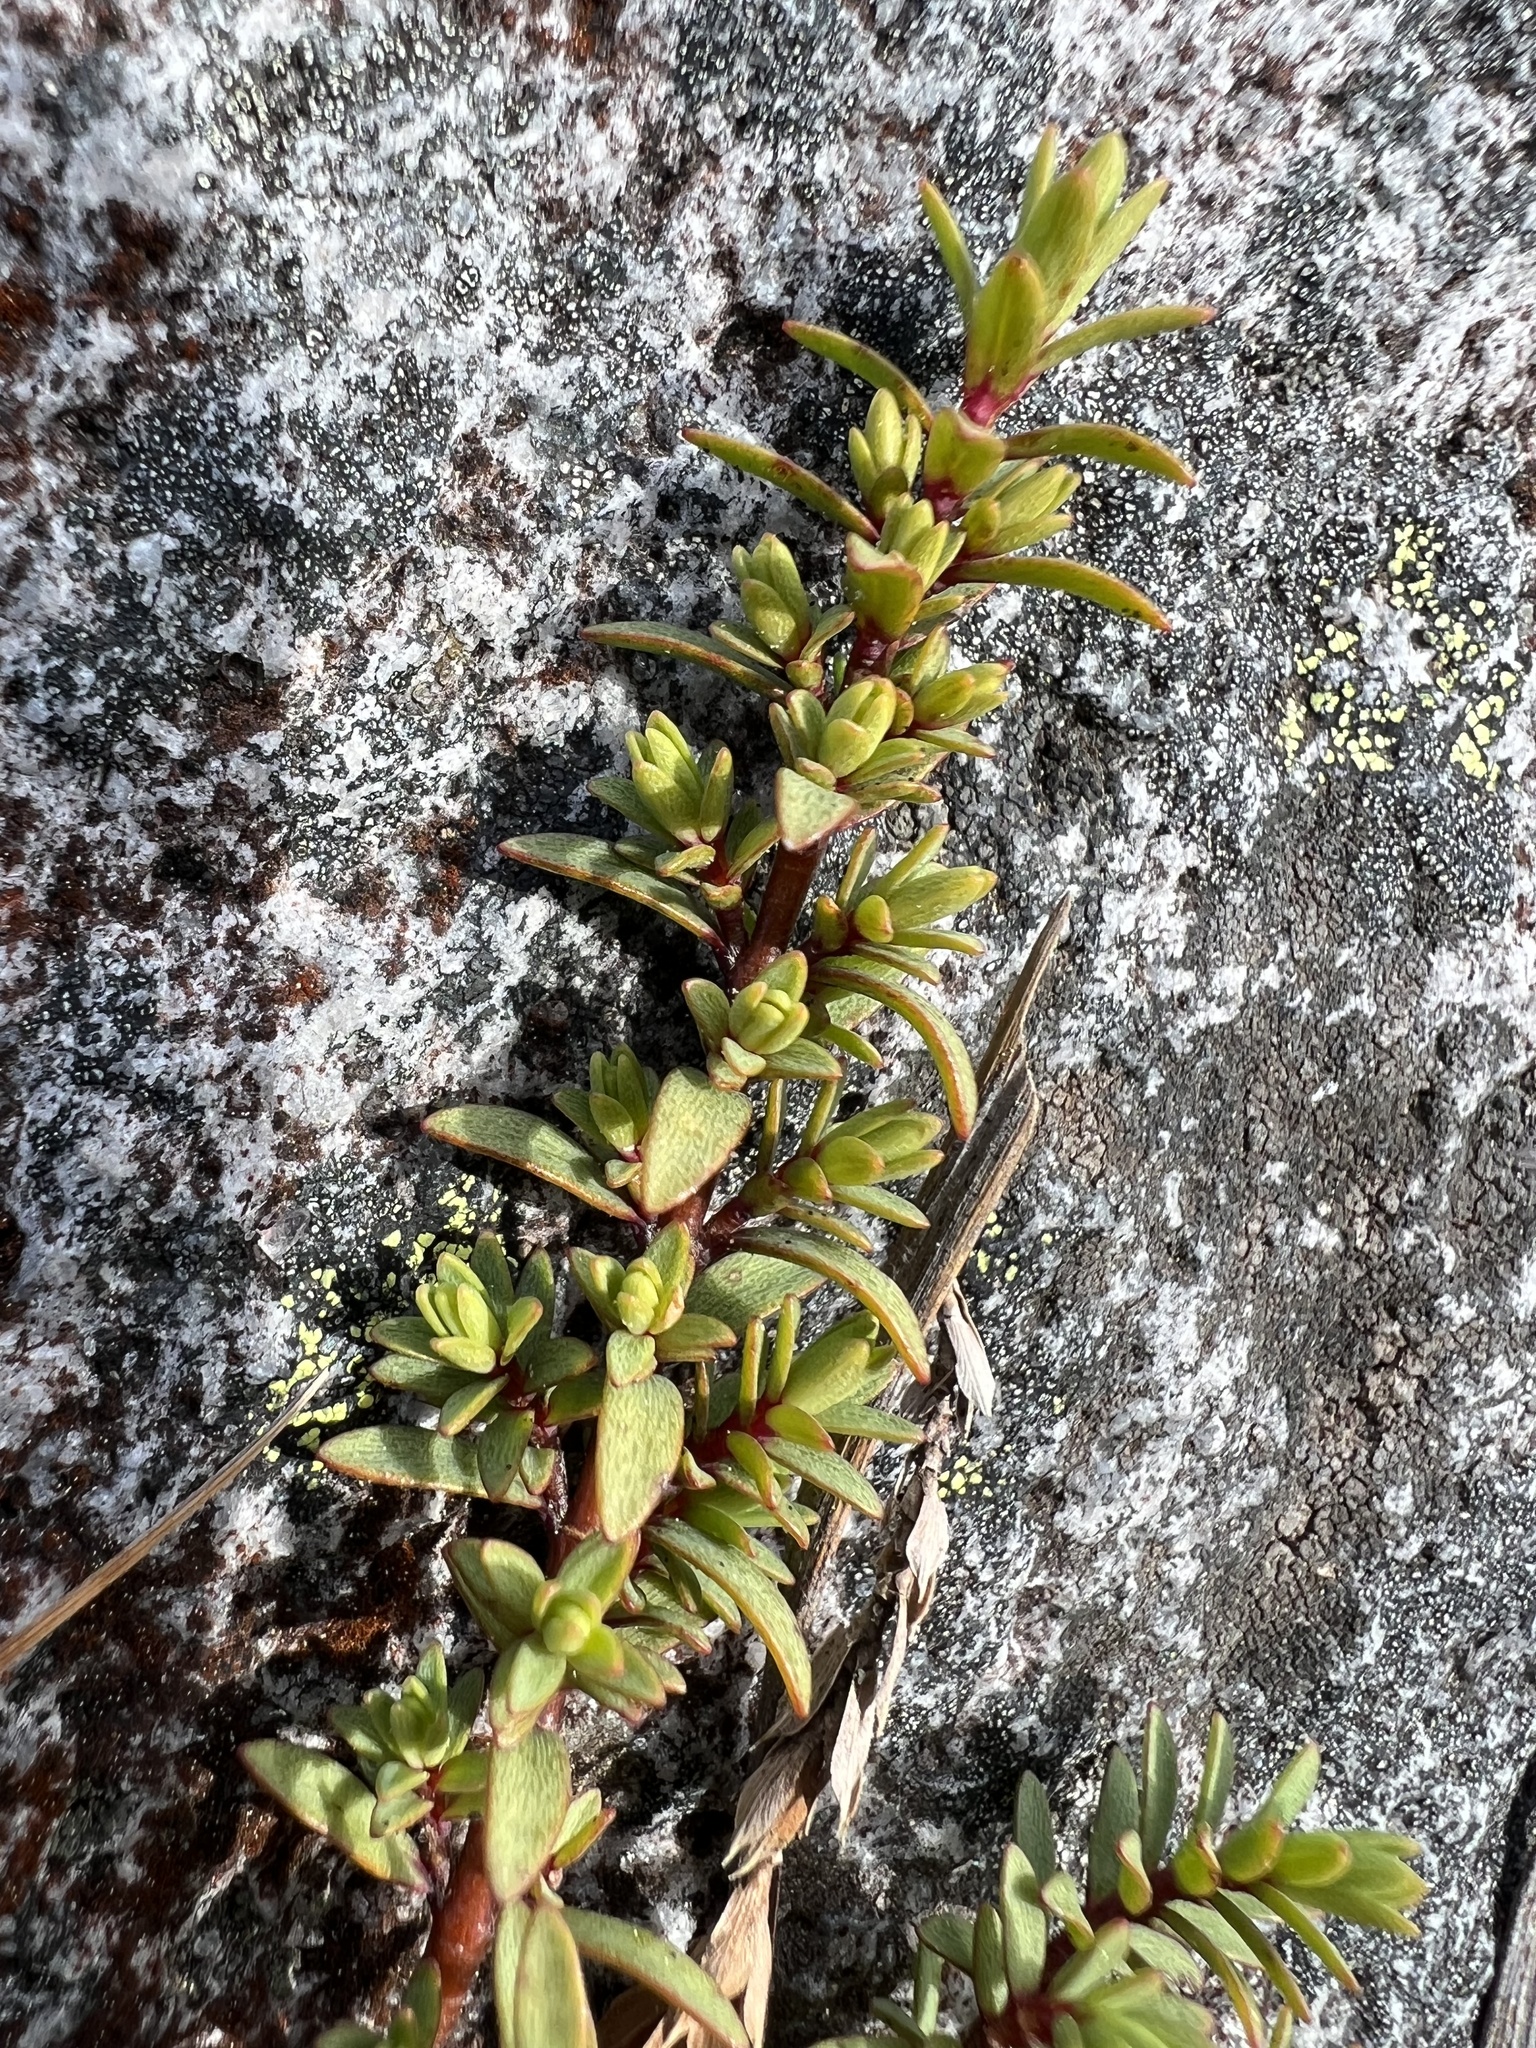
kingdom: Plantae
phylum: Tracheophyta
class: Magnoliopsida
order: Malvales
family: Thymelaeaceae
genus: Pimelea
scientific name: Pimelea prostrata
